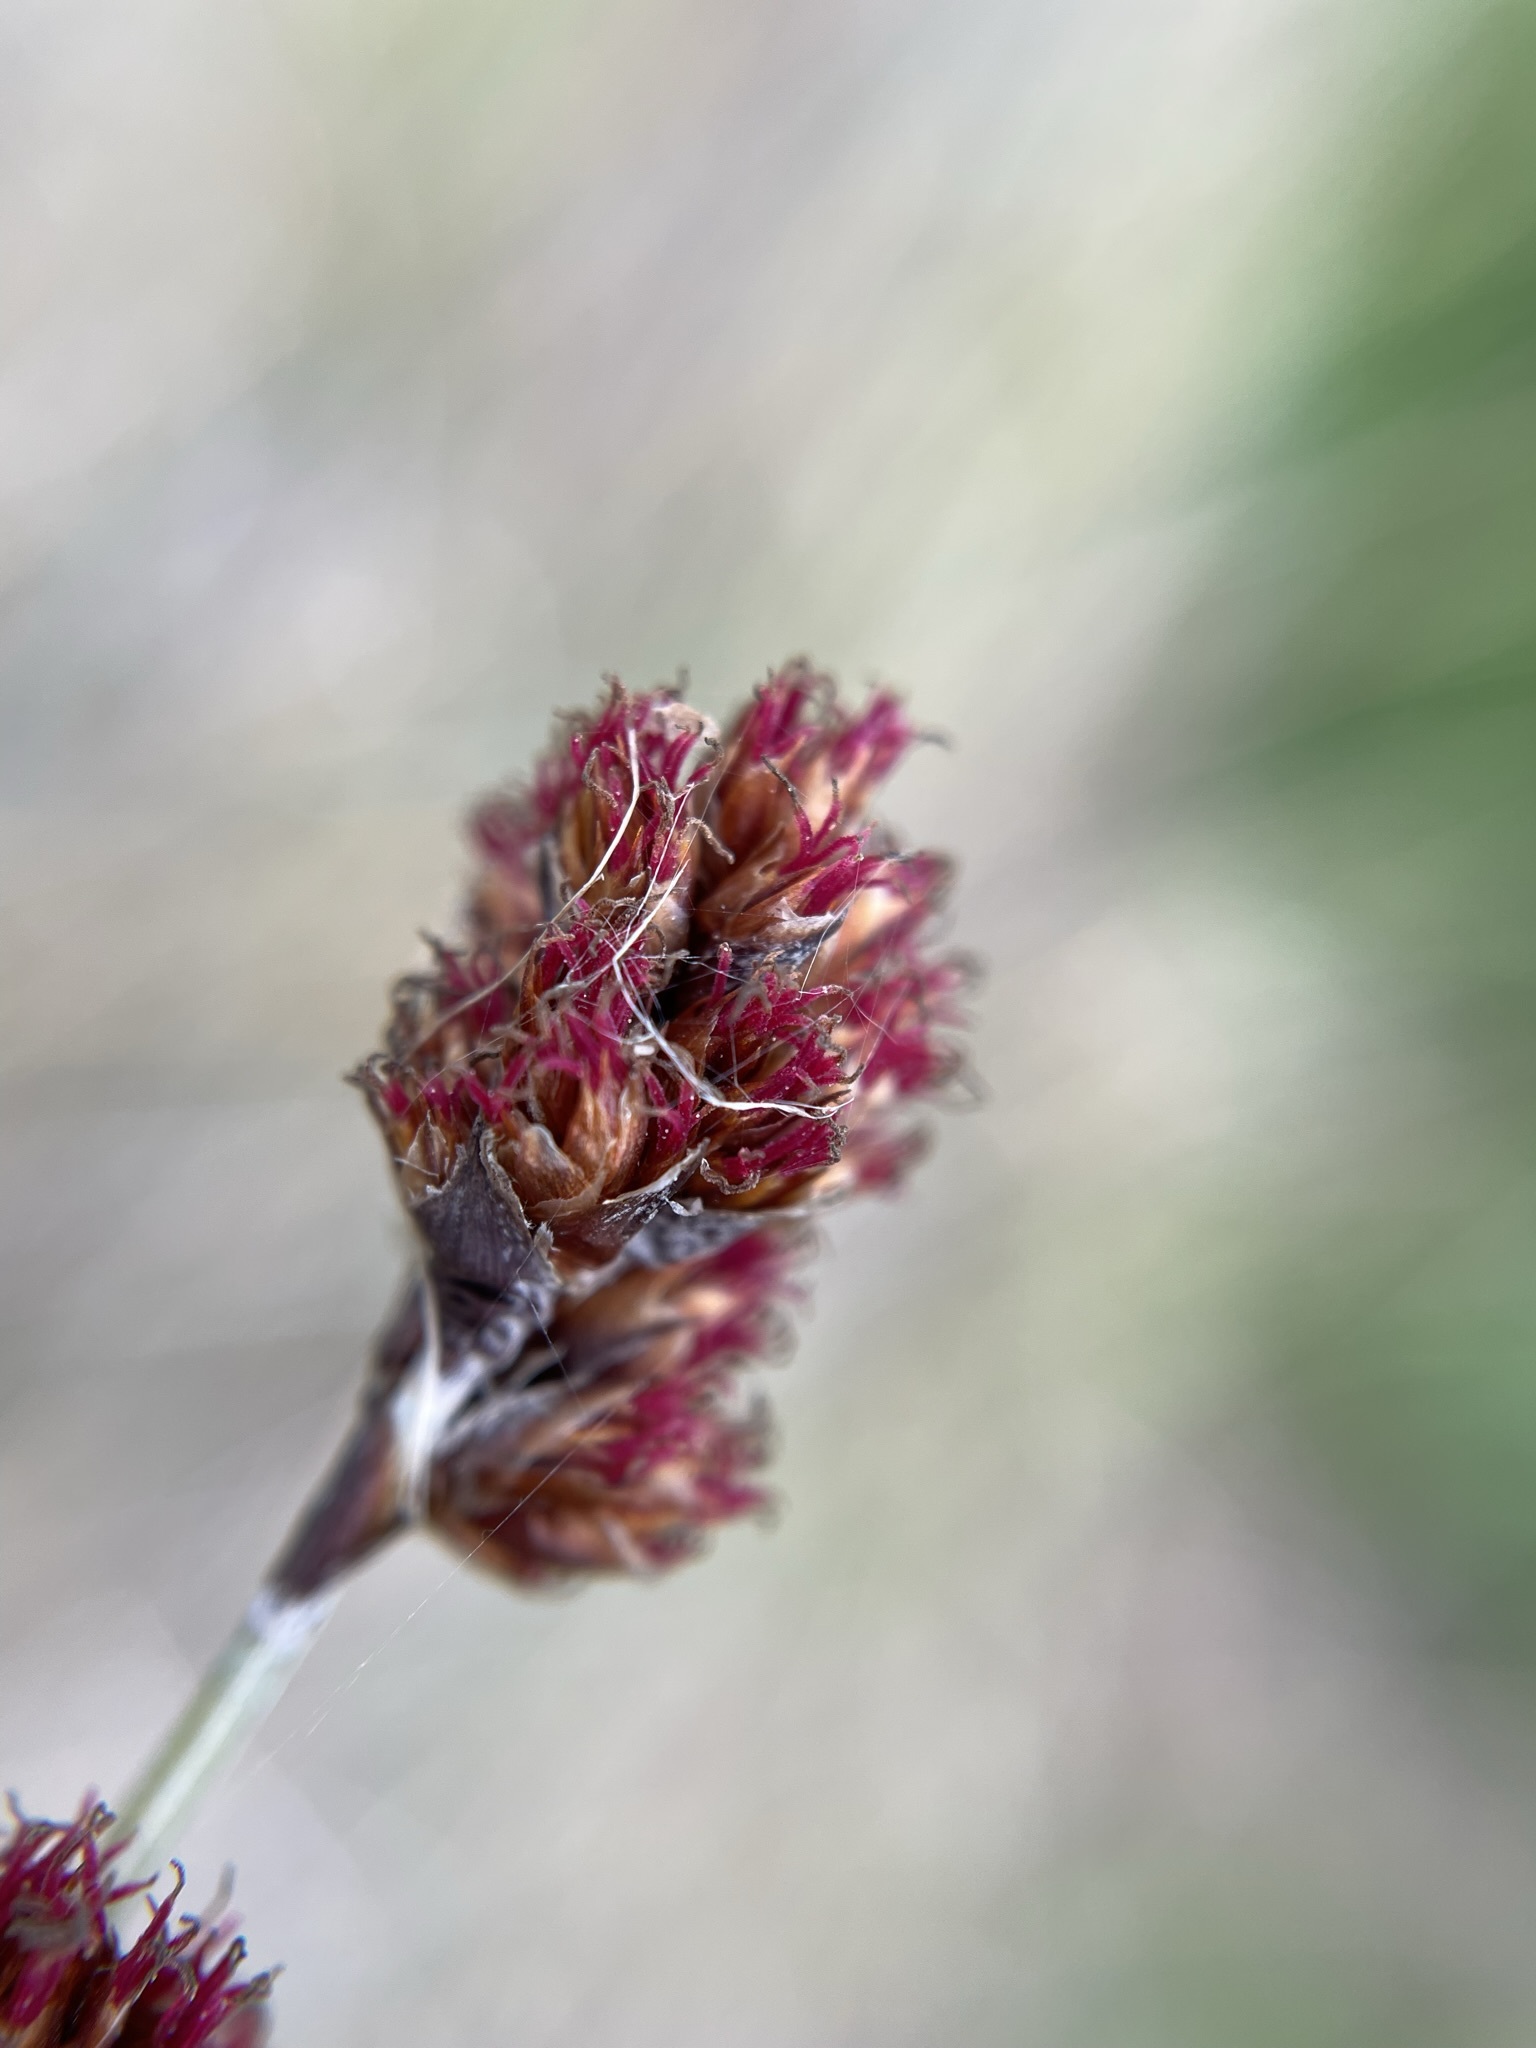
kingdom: Plantae
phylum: Tracheophyta
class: Liliopsida
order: Poales
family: Restionaceae
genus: Apodasmia
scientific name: Apodasmia similis
